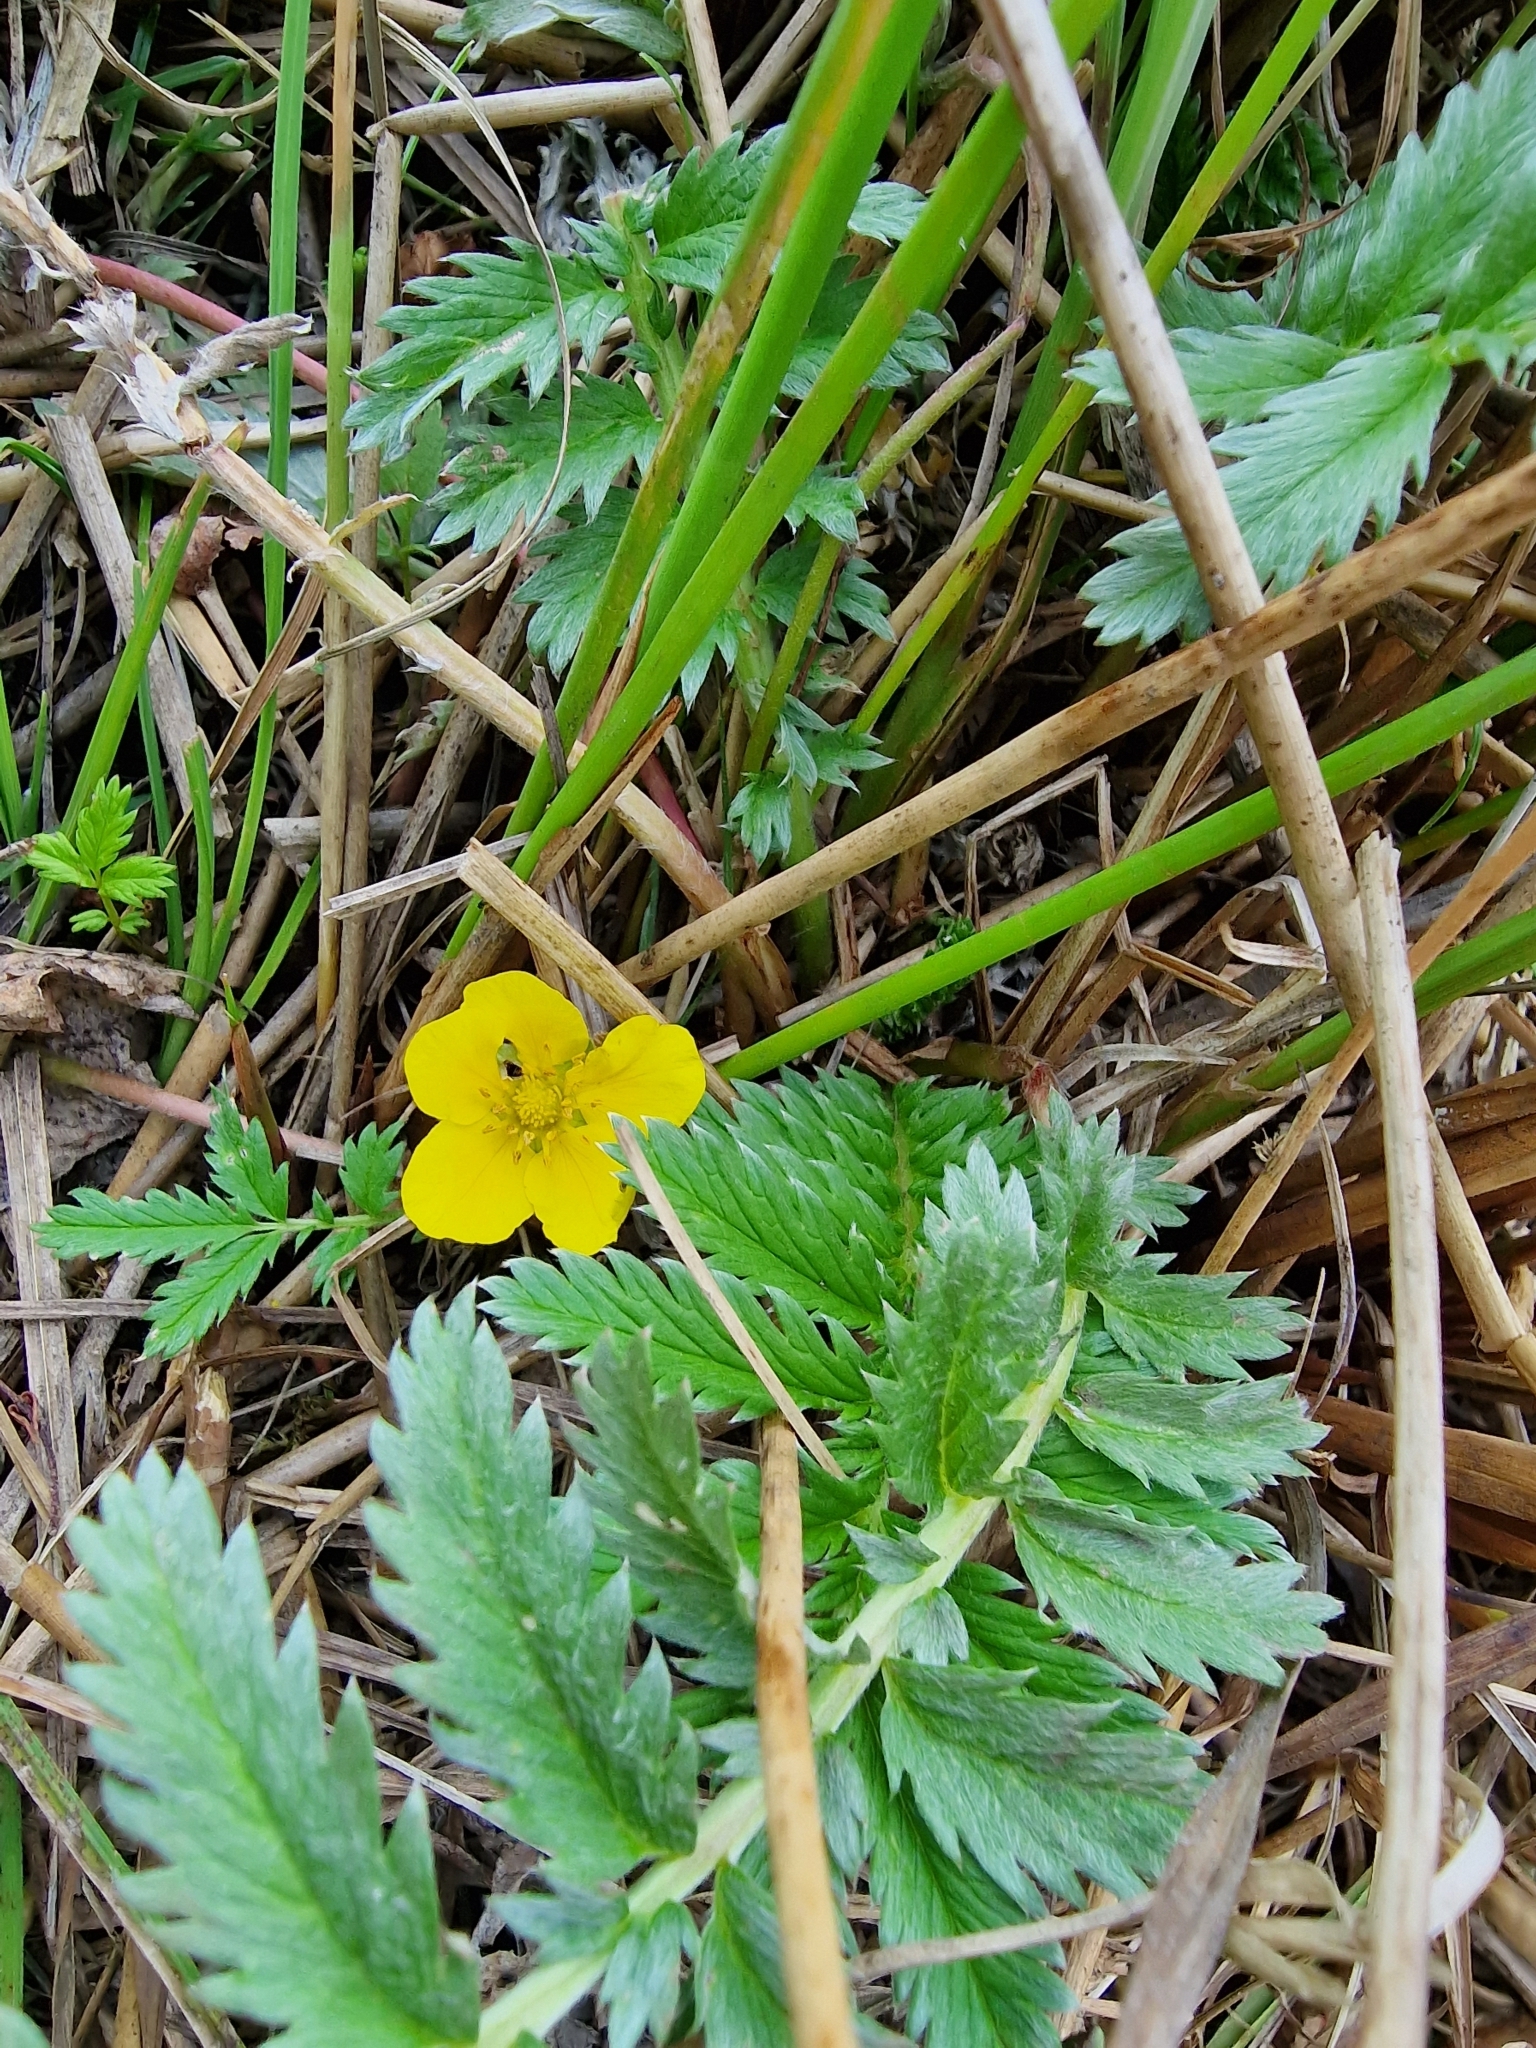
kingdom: Plantae
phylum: Tracheophyta
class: Magnoliopsida
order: Rosales
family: Rosaceae
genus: Argentina
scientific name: Argentina anserina
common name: Common silverweed
